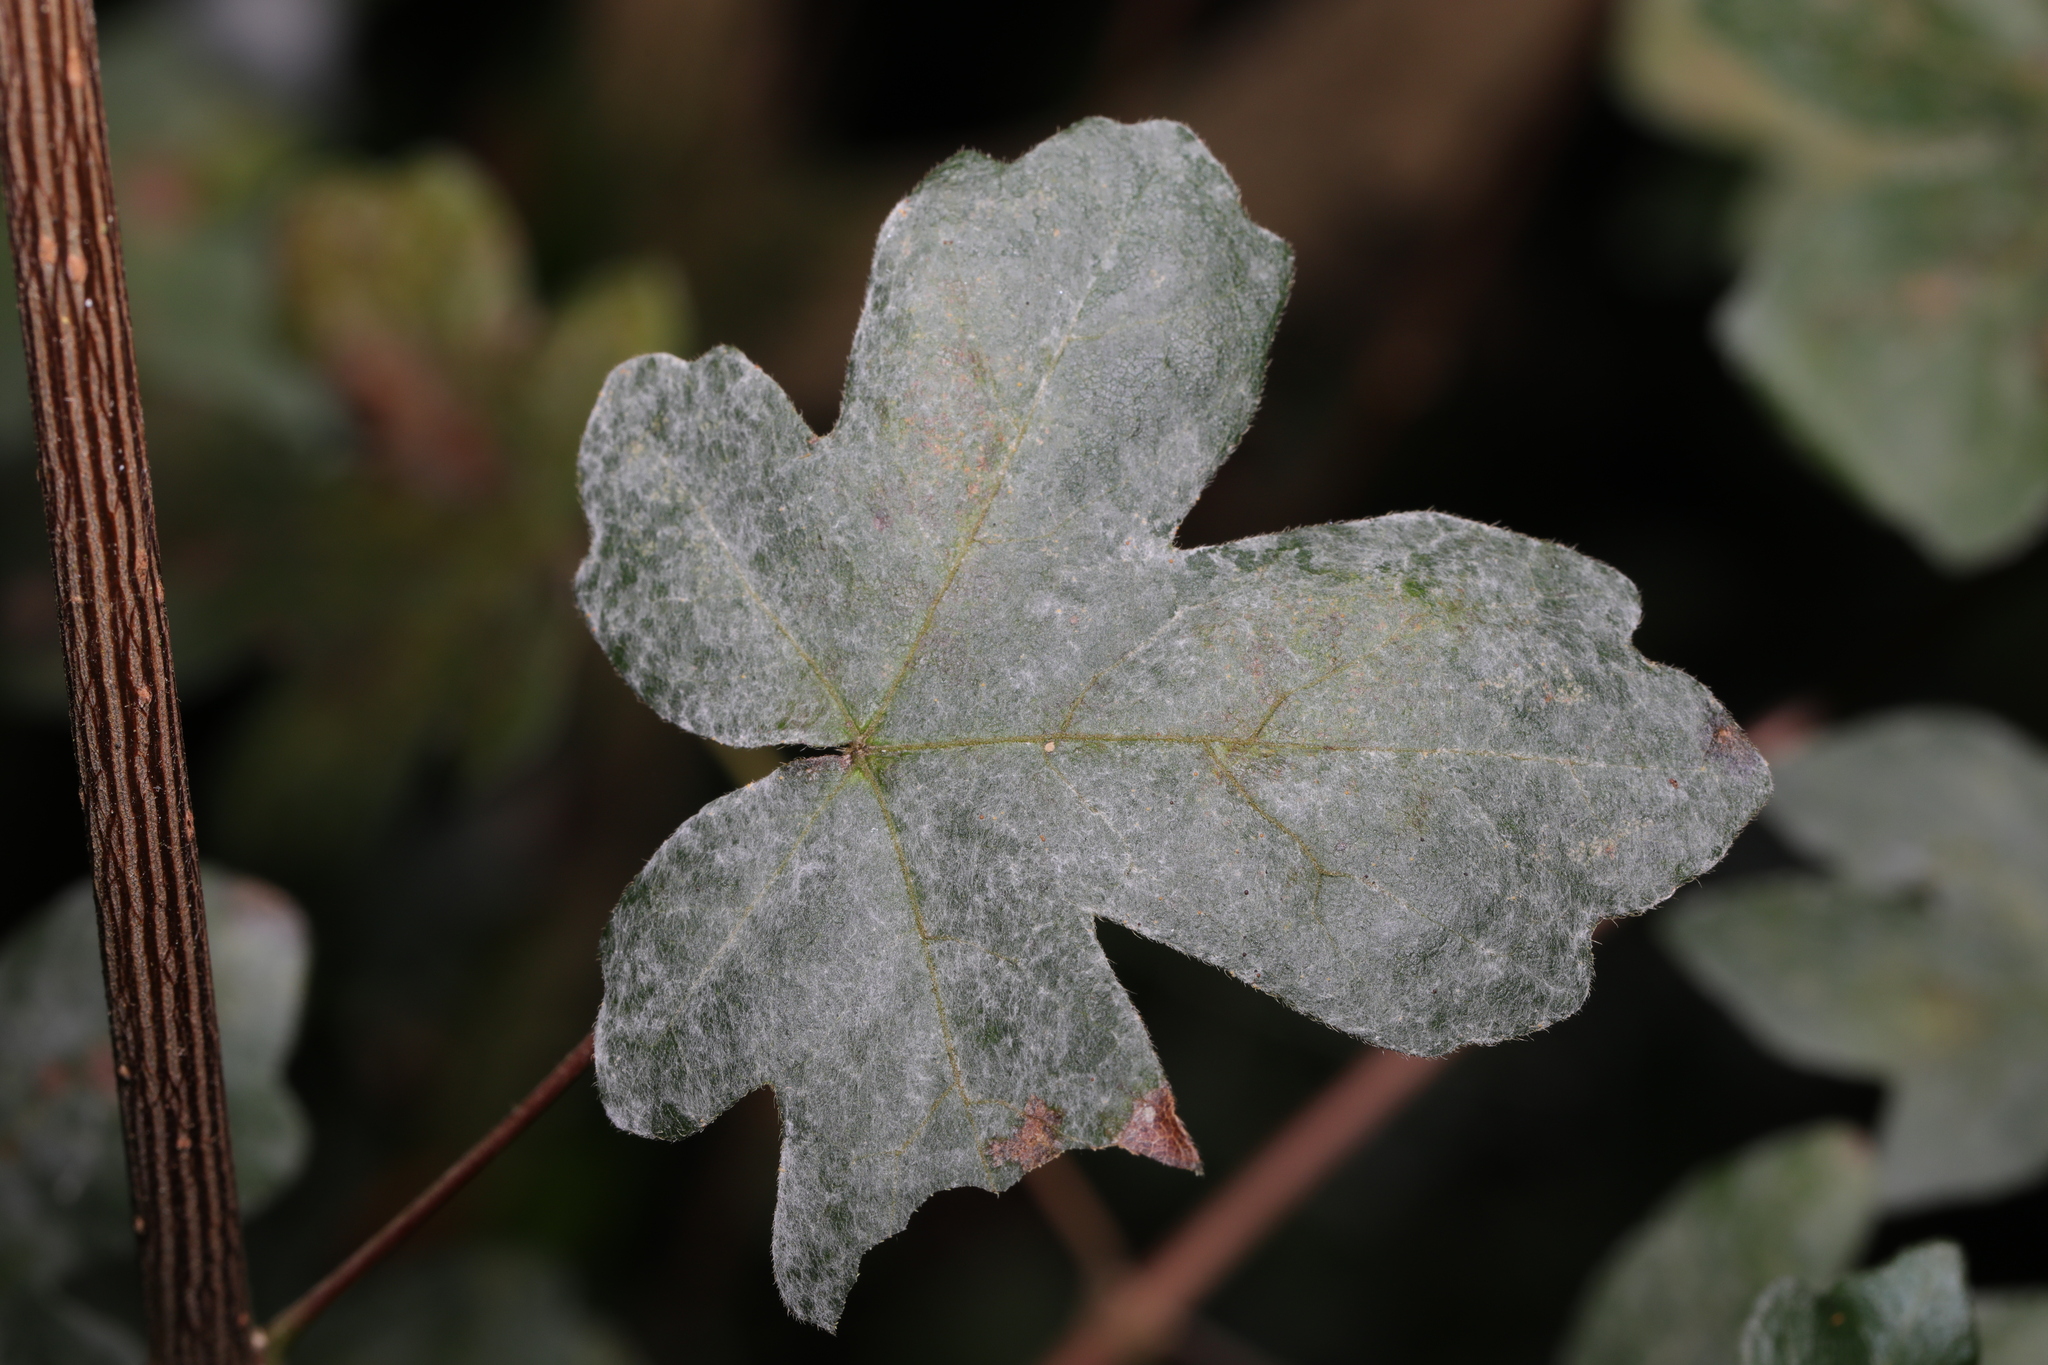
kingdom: Fungi
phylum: Ascomycota
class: Leotiomycetes
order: Helotiales
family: Erysiphaceae
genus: Sawadaea
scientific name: Sawadaea bicornis
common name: Maple mildew
